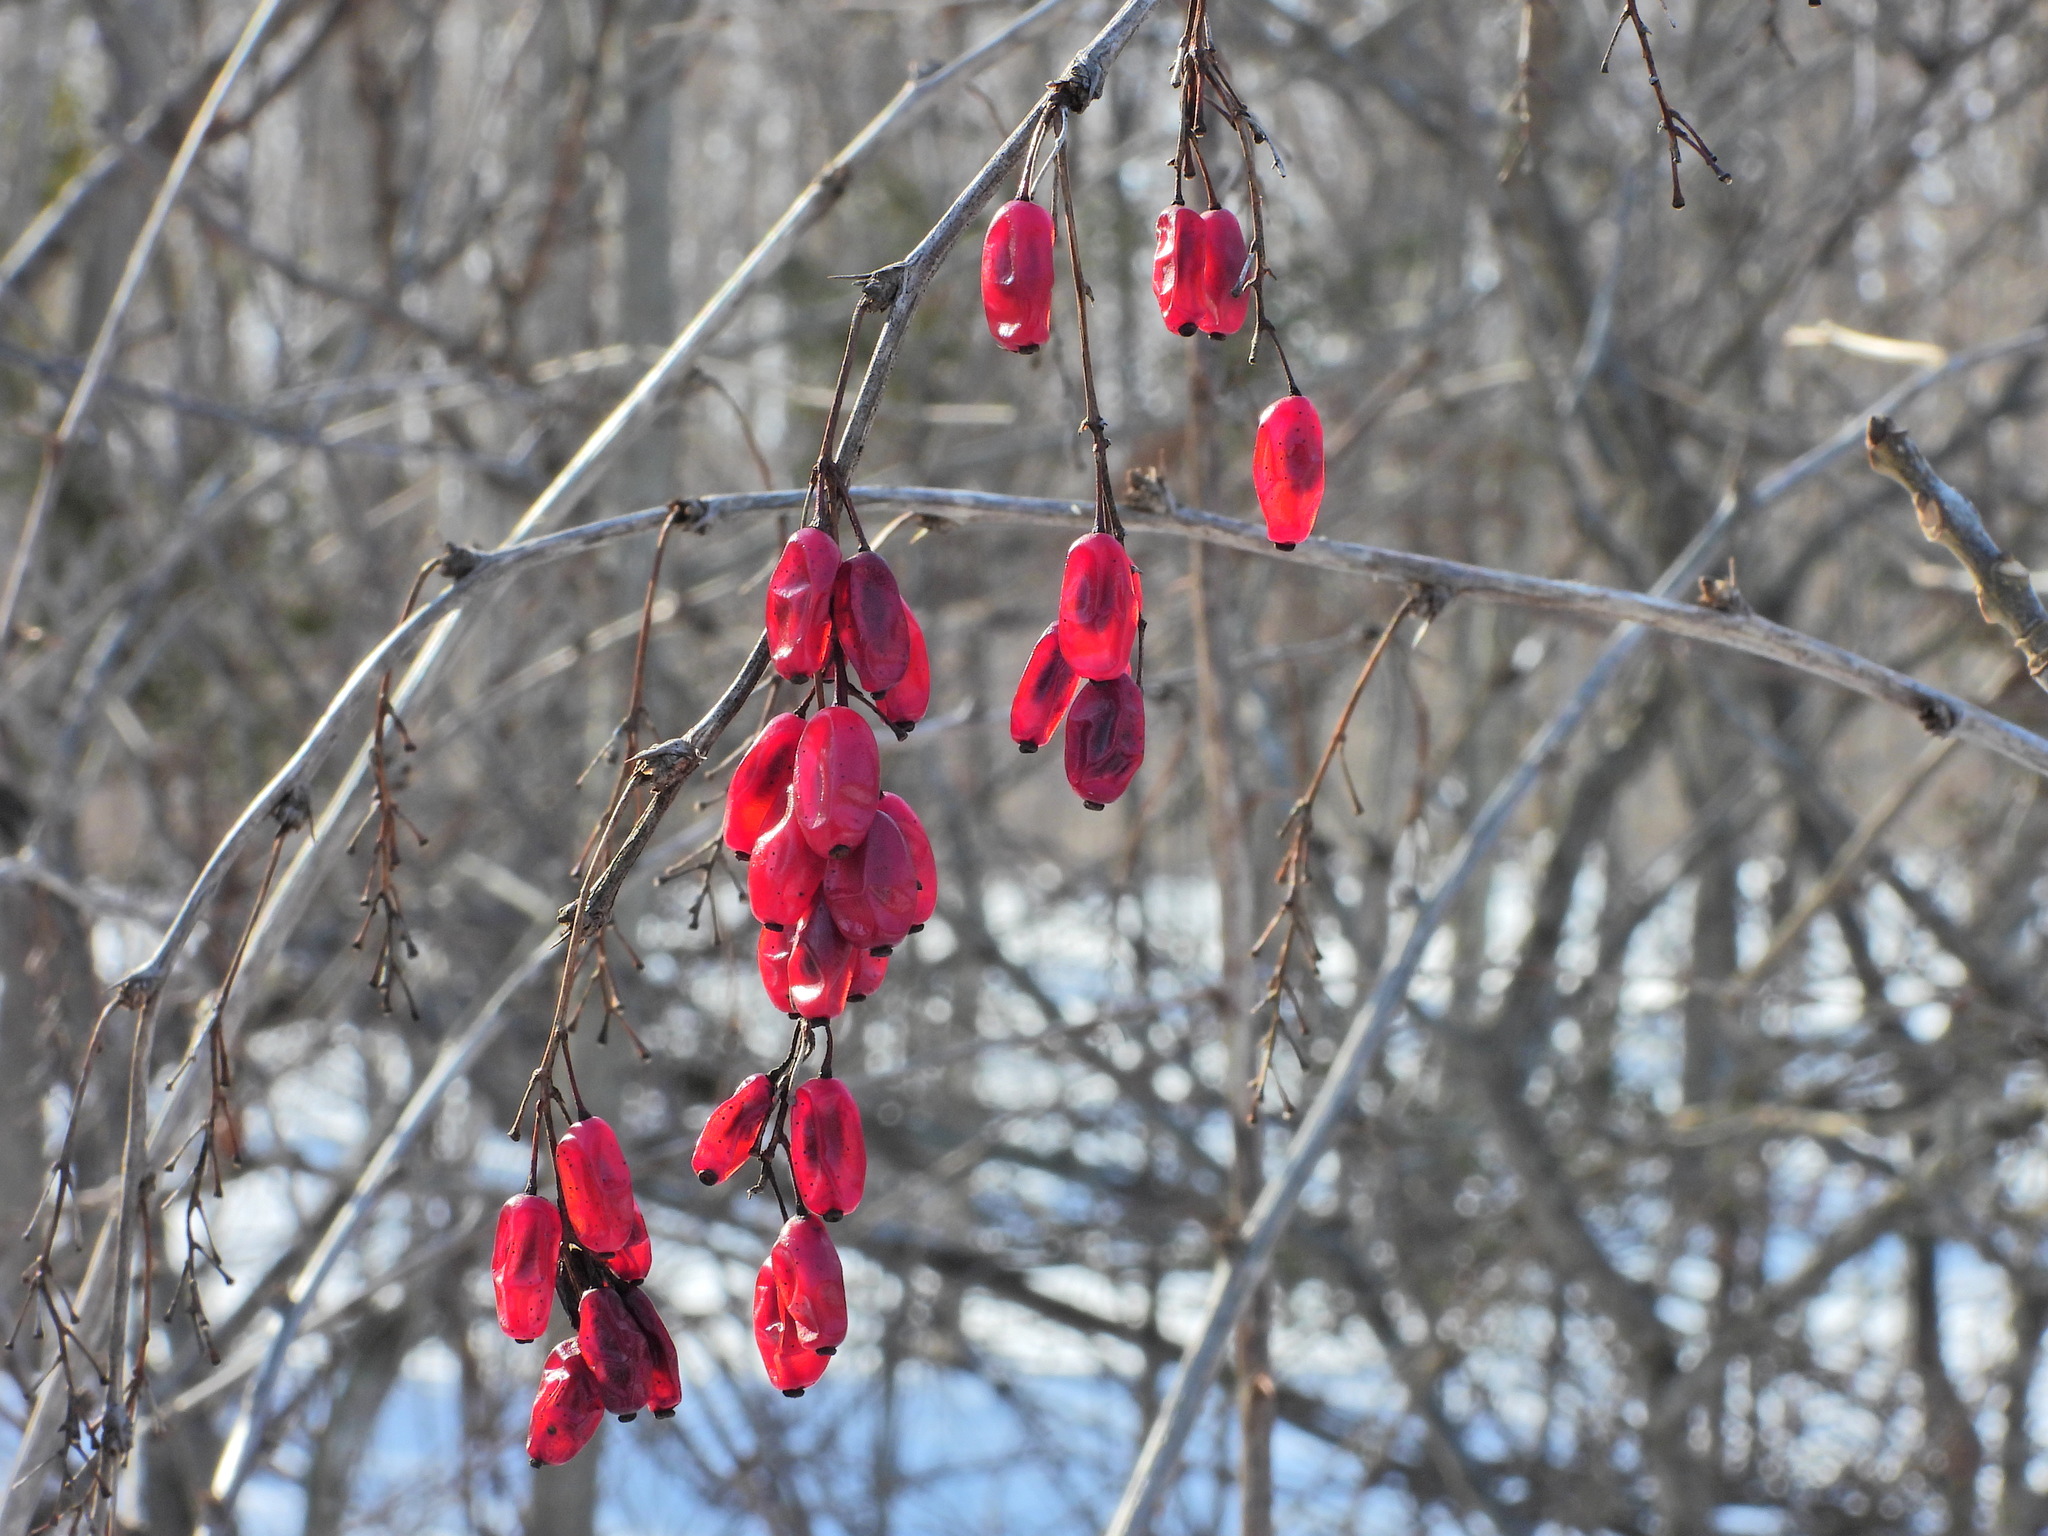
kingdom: Plantae
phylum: Tracheophyta
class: Magnoliopsida
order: Ranunculales
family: Berberidaceae
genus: Berberis
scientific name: Berberis vulgaris
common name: Barberry
